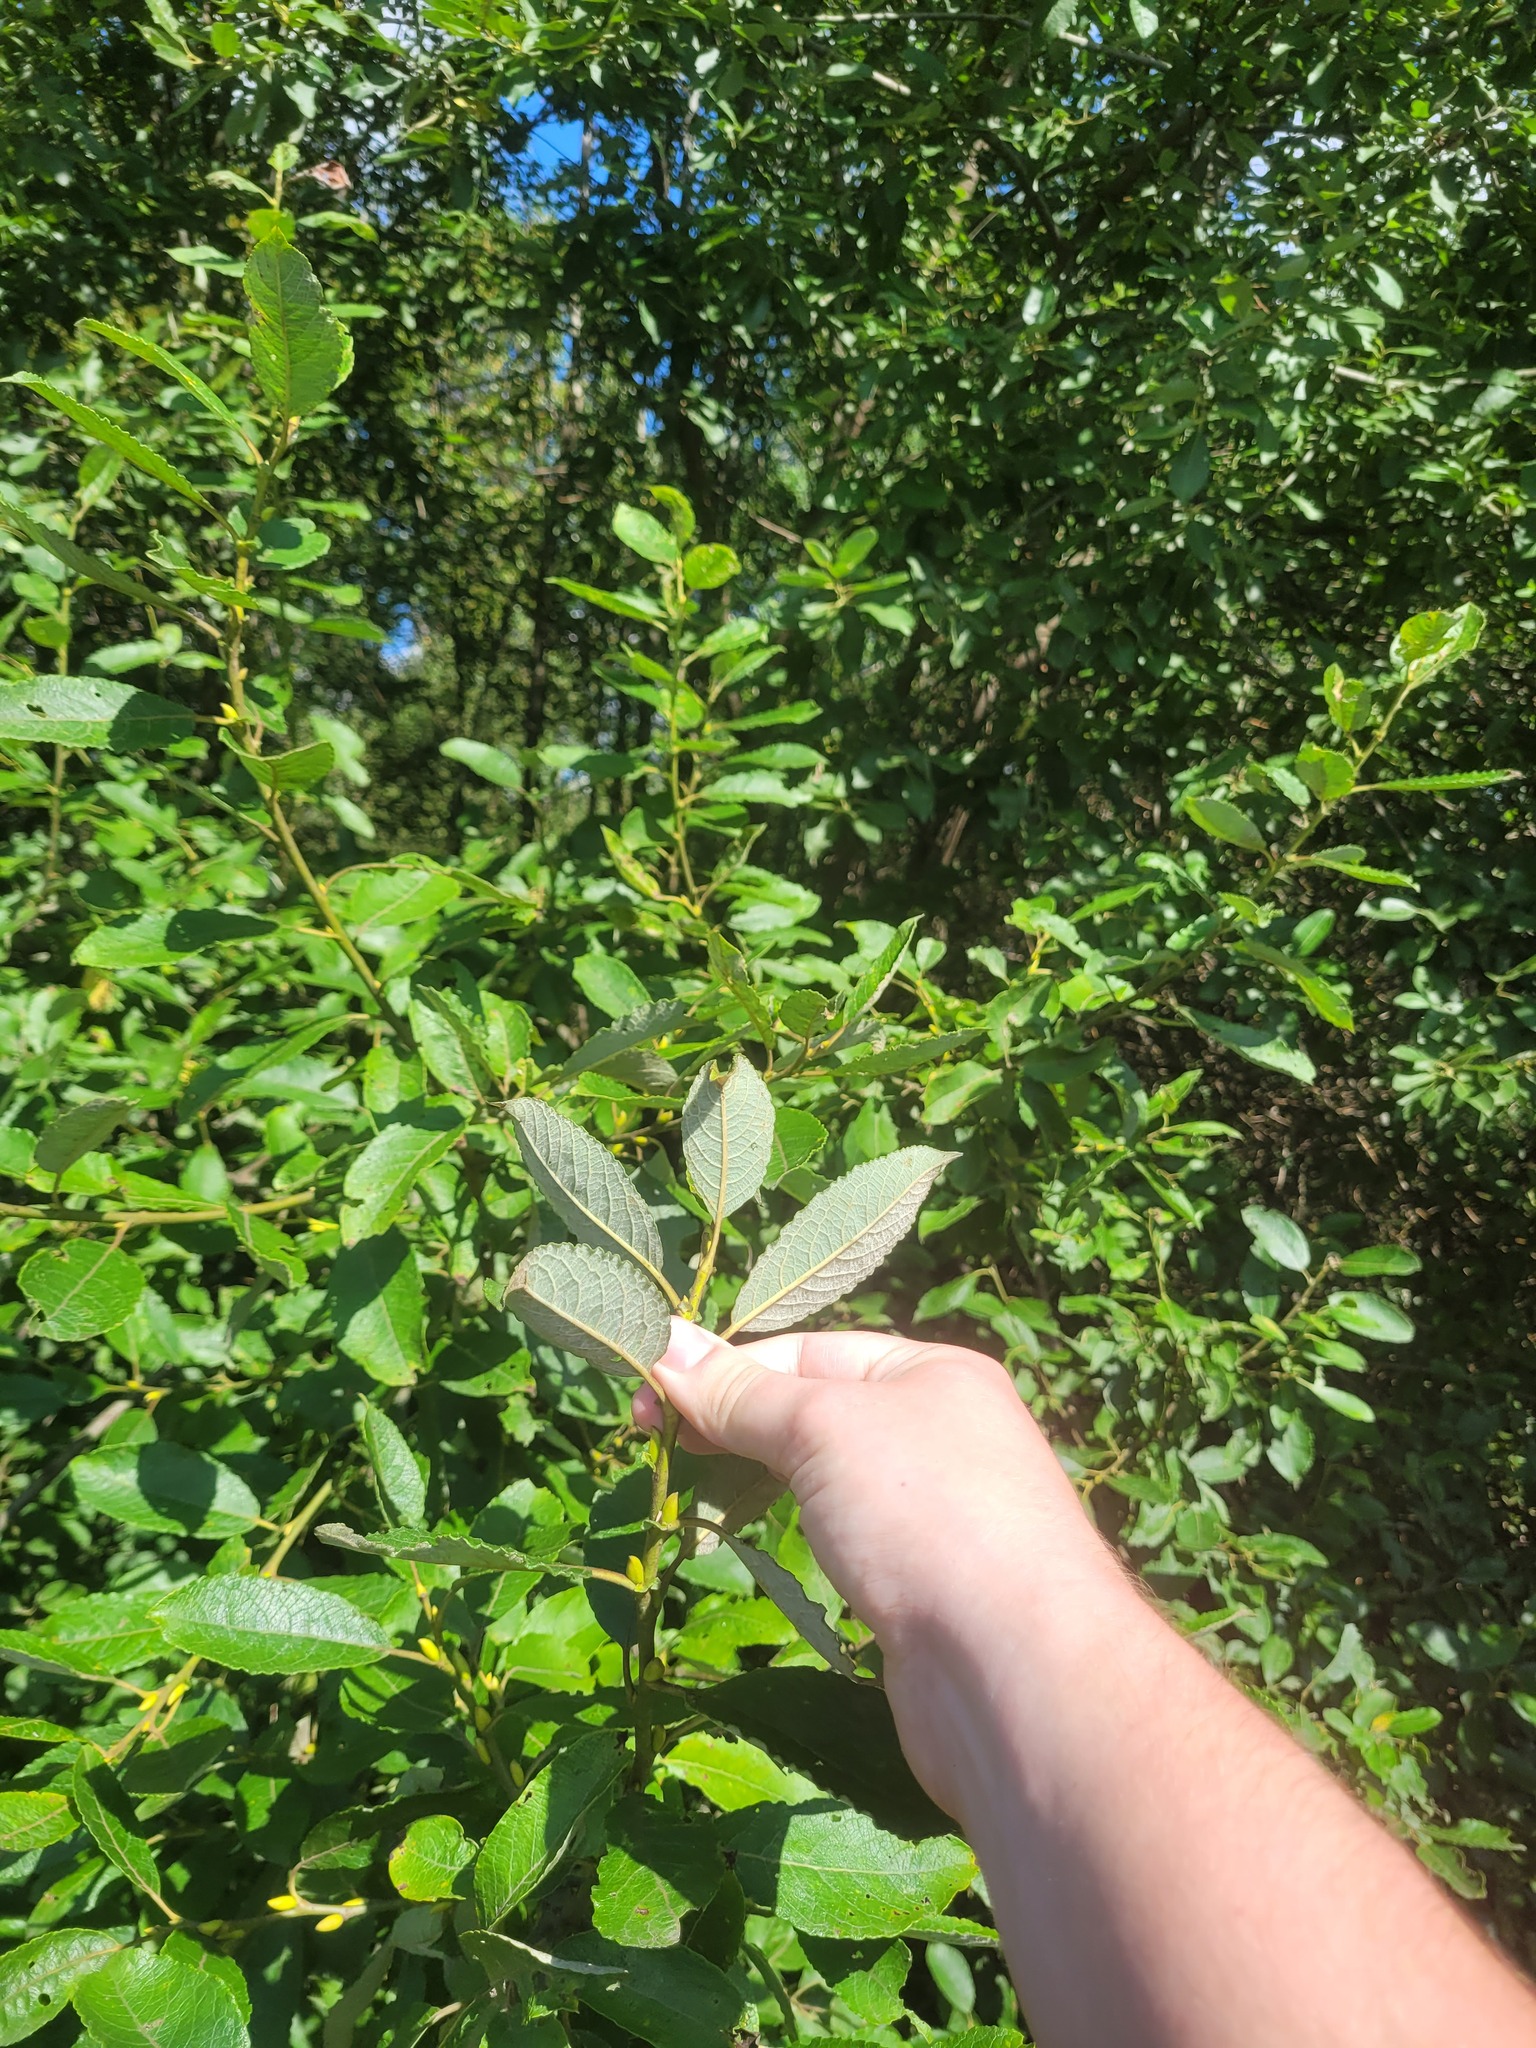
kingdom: Plantae
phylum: Tracheophyta
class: Magnoliopsida
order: Malpighiales
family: Salicaceae
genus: Salix
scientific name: Salix caprea
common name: Goat willow
